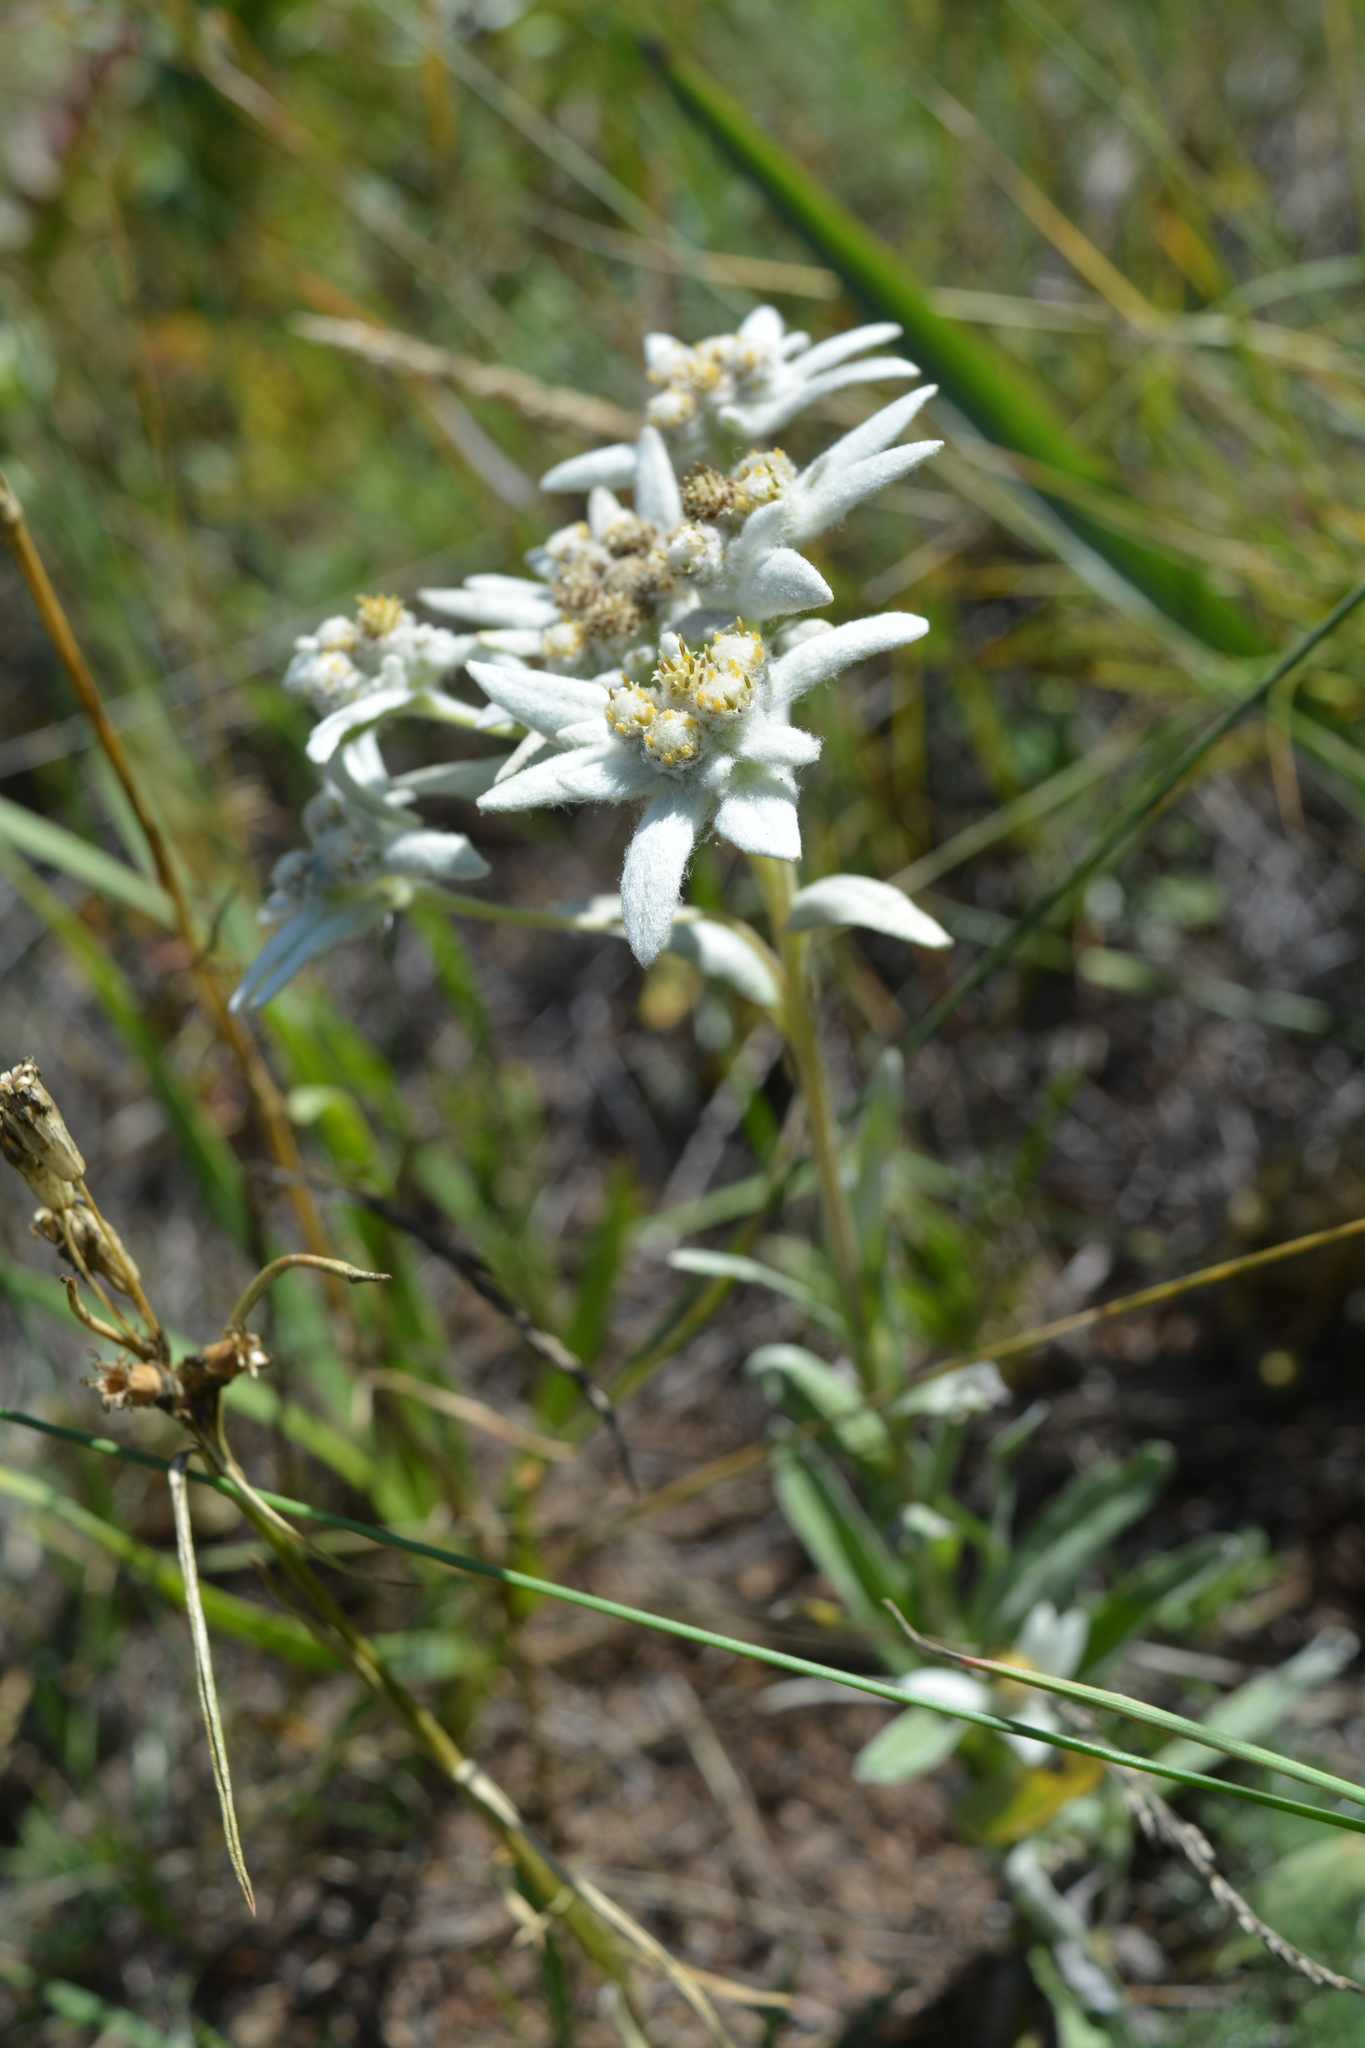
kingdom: Plantae
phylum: Tracheophyta
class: Magnoliopsida
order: Asterales
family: Asteraceae
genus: Leontopodium
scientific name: Leontopodium conglobatum
